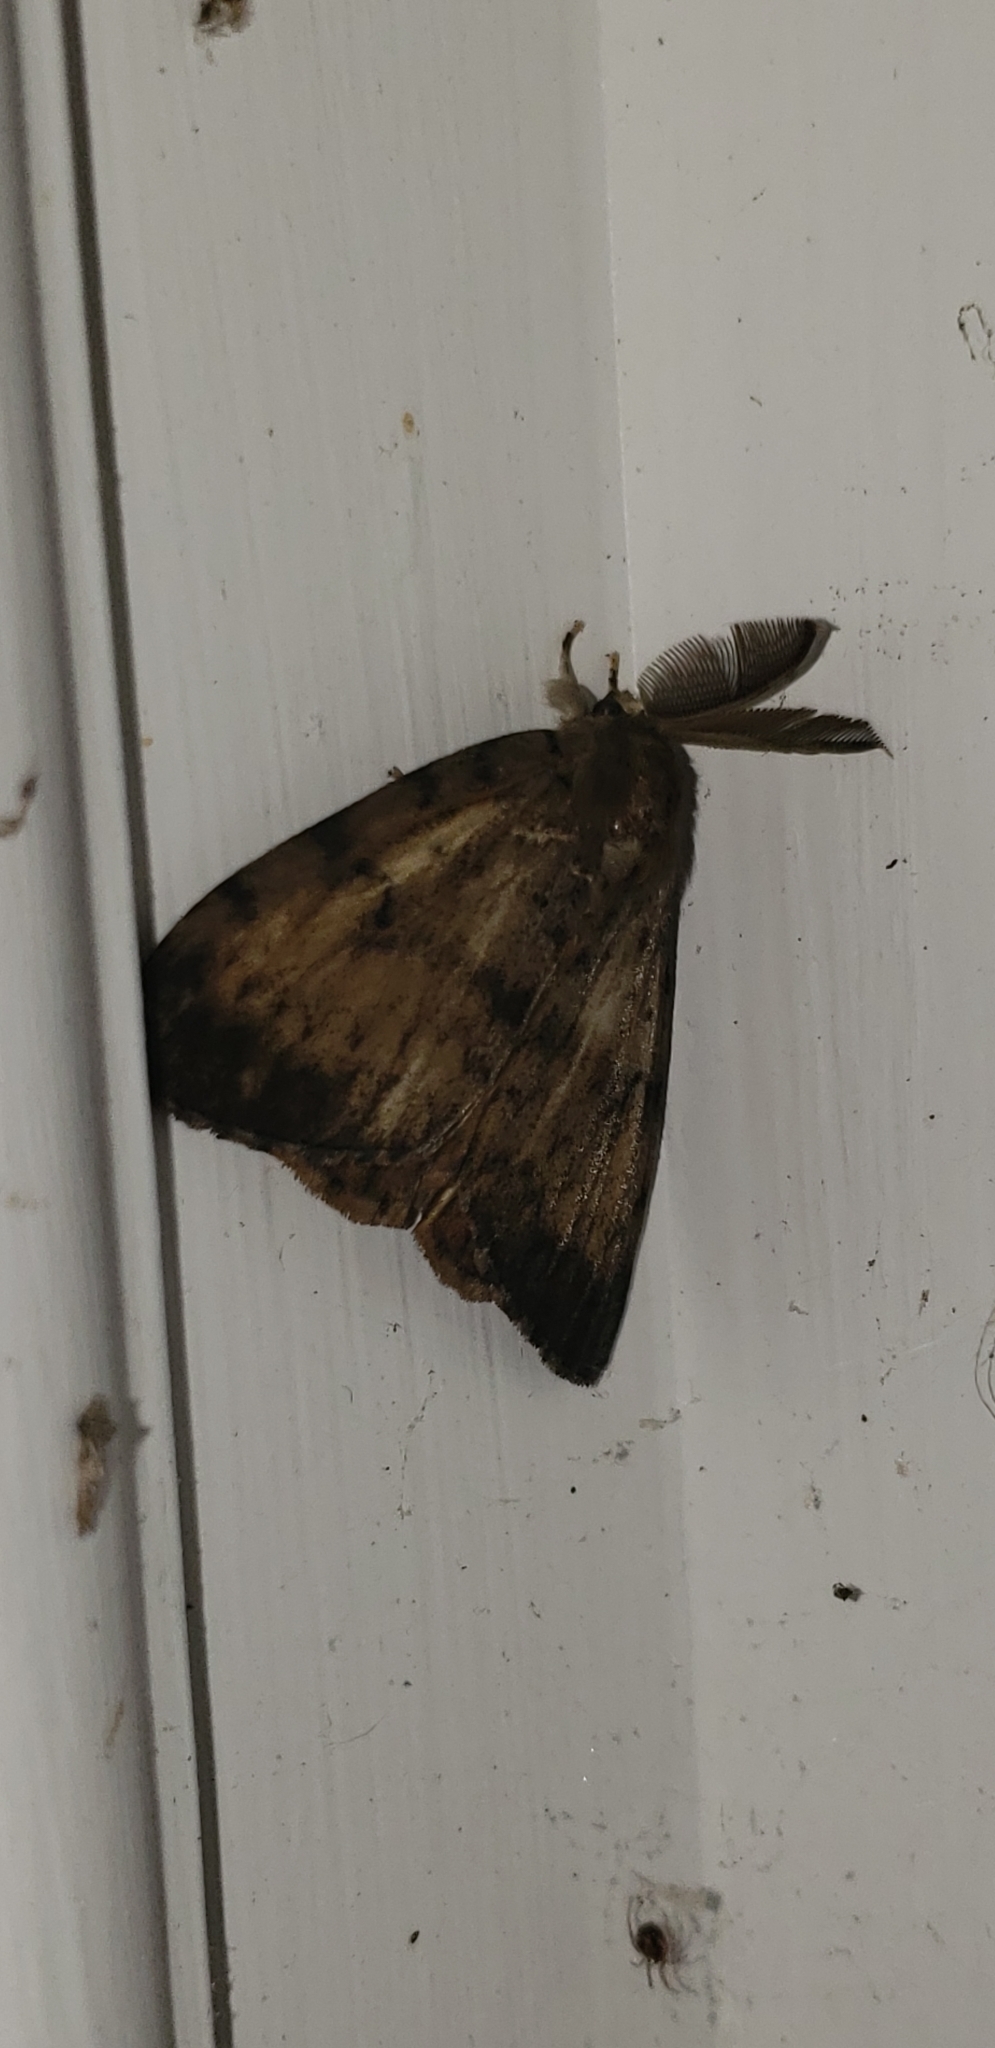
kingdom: Animalia
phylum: Arthropoda
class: Insecta
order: Lepidoptera
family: Erebidae
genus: Lymantria
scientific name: Lymantria dispar
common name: Gypsy moth
